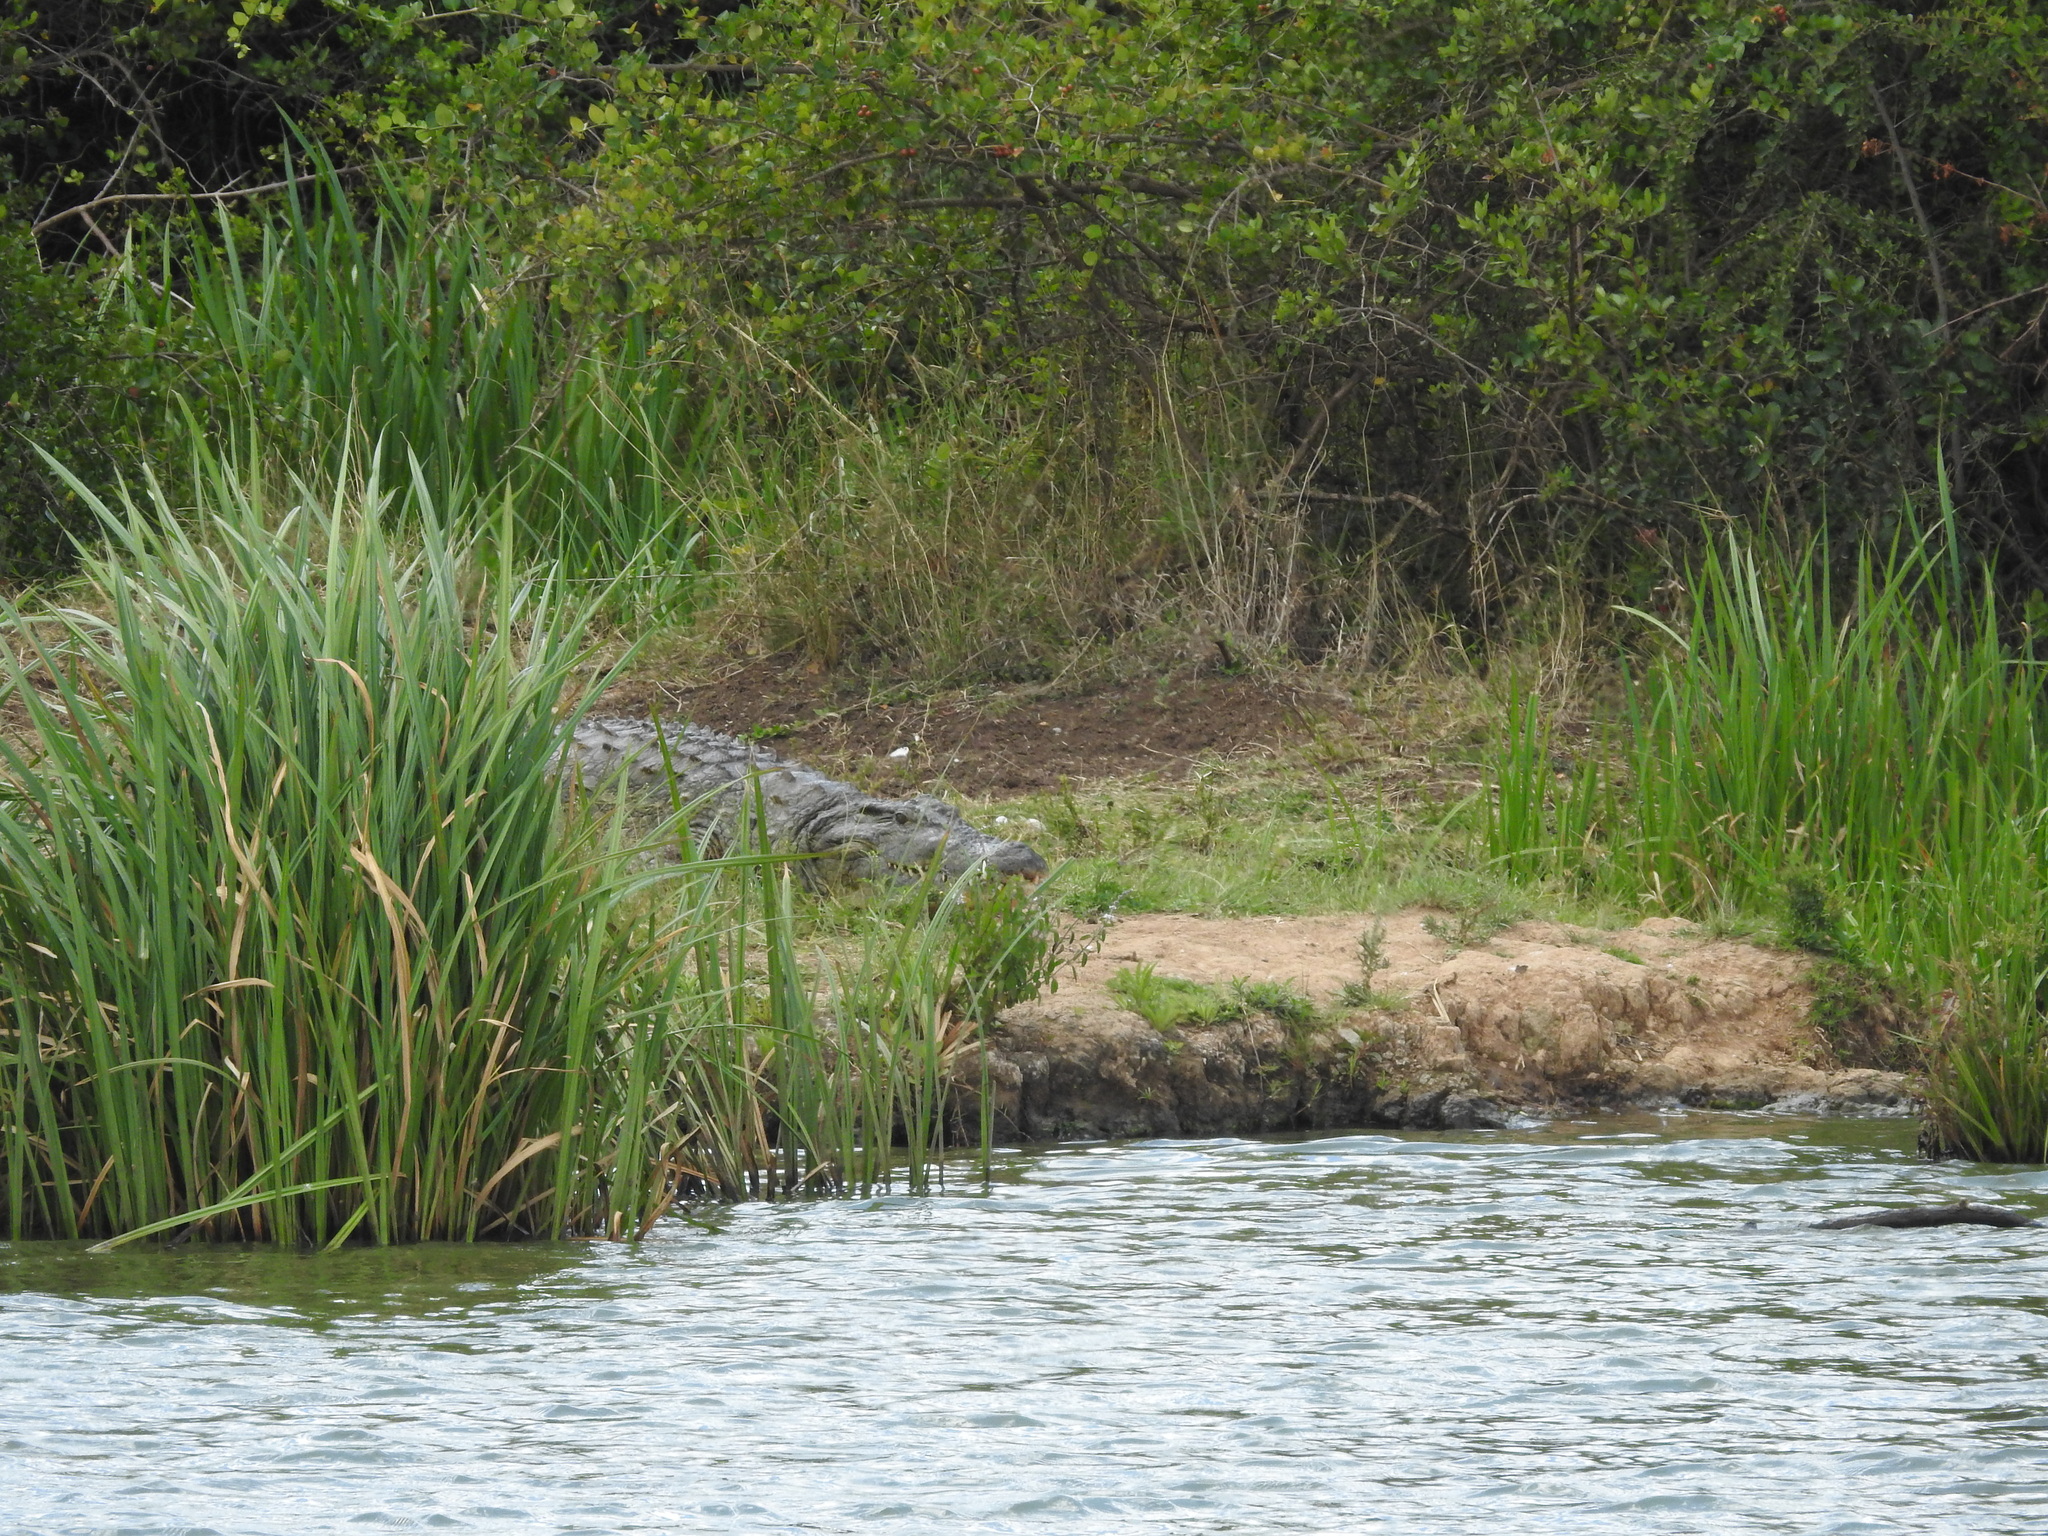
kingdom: Animalia
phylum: Chordata
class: Crocodylia
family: Crocodylidae
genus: Crocodylus
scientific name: Crocodylus niloticus
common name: Nile crocodile
